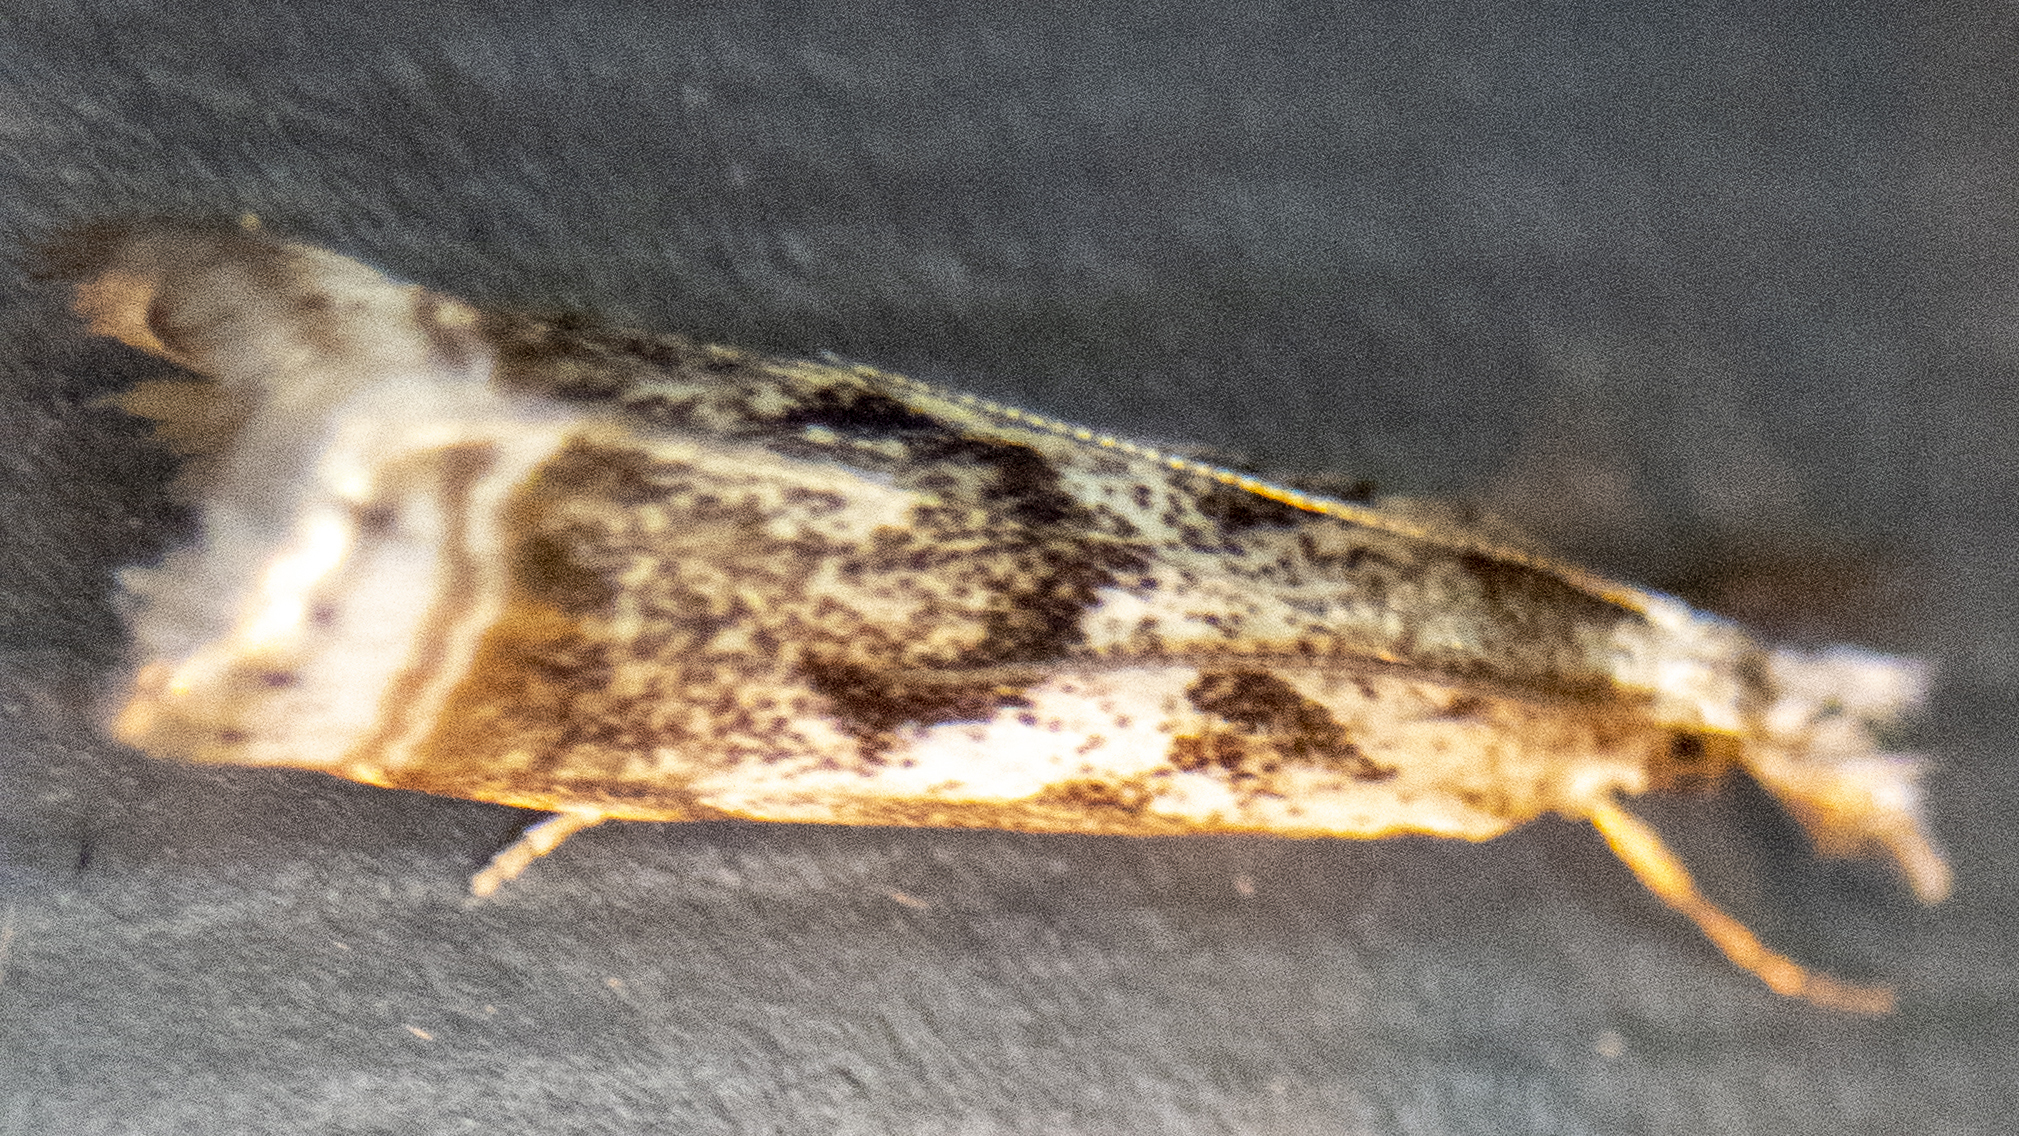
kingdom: Animalia
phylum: Arthropoda
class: Insecta
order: Lepidoptera
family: Crambidae
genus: Microcrambus
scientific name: Microcrambus elegans
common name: Elegant grass-veneer
